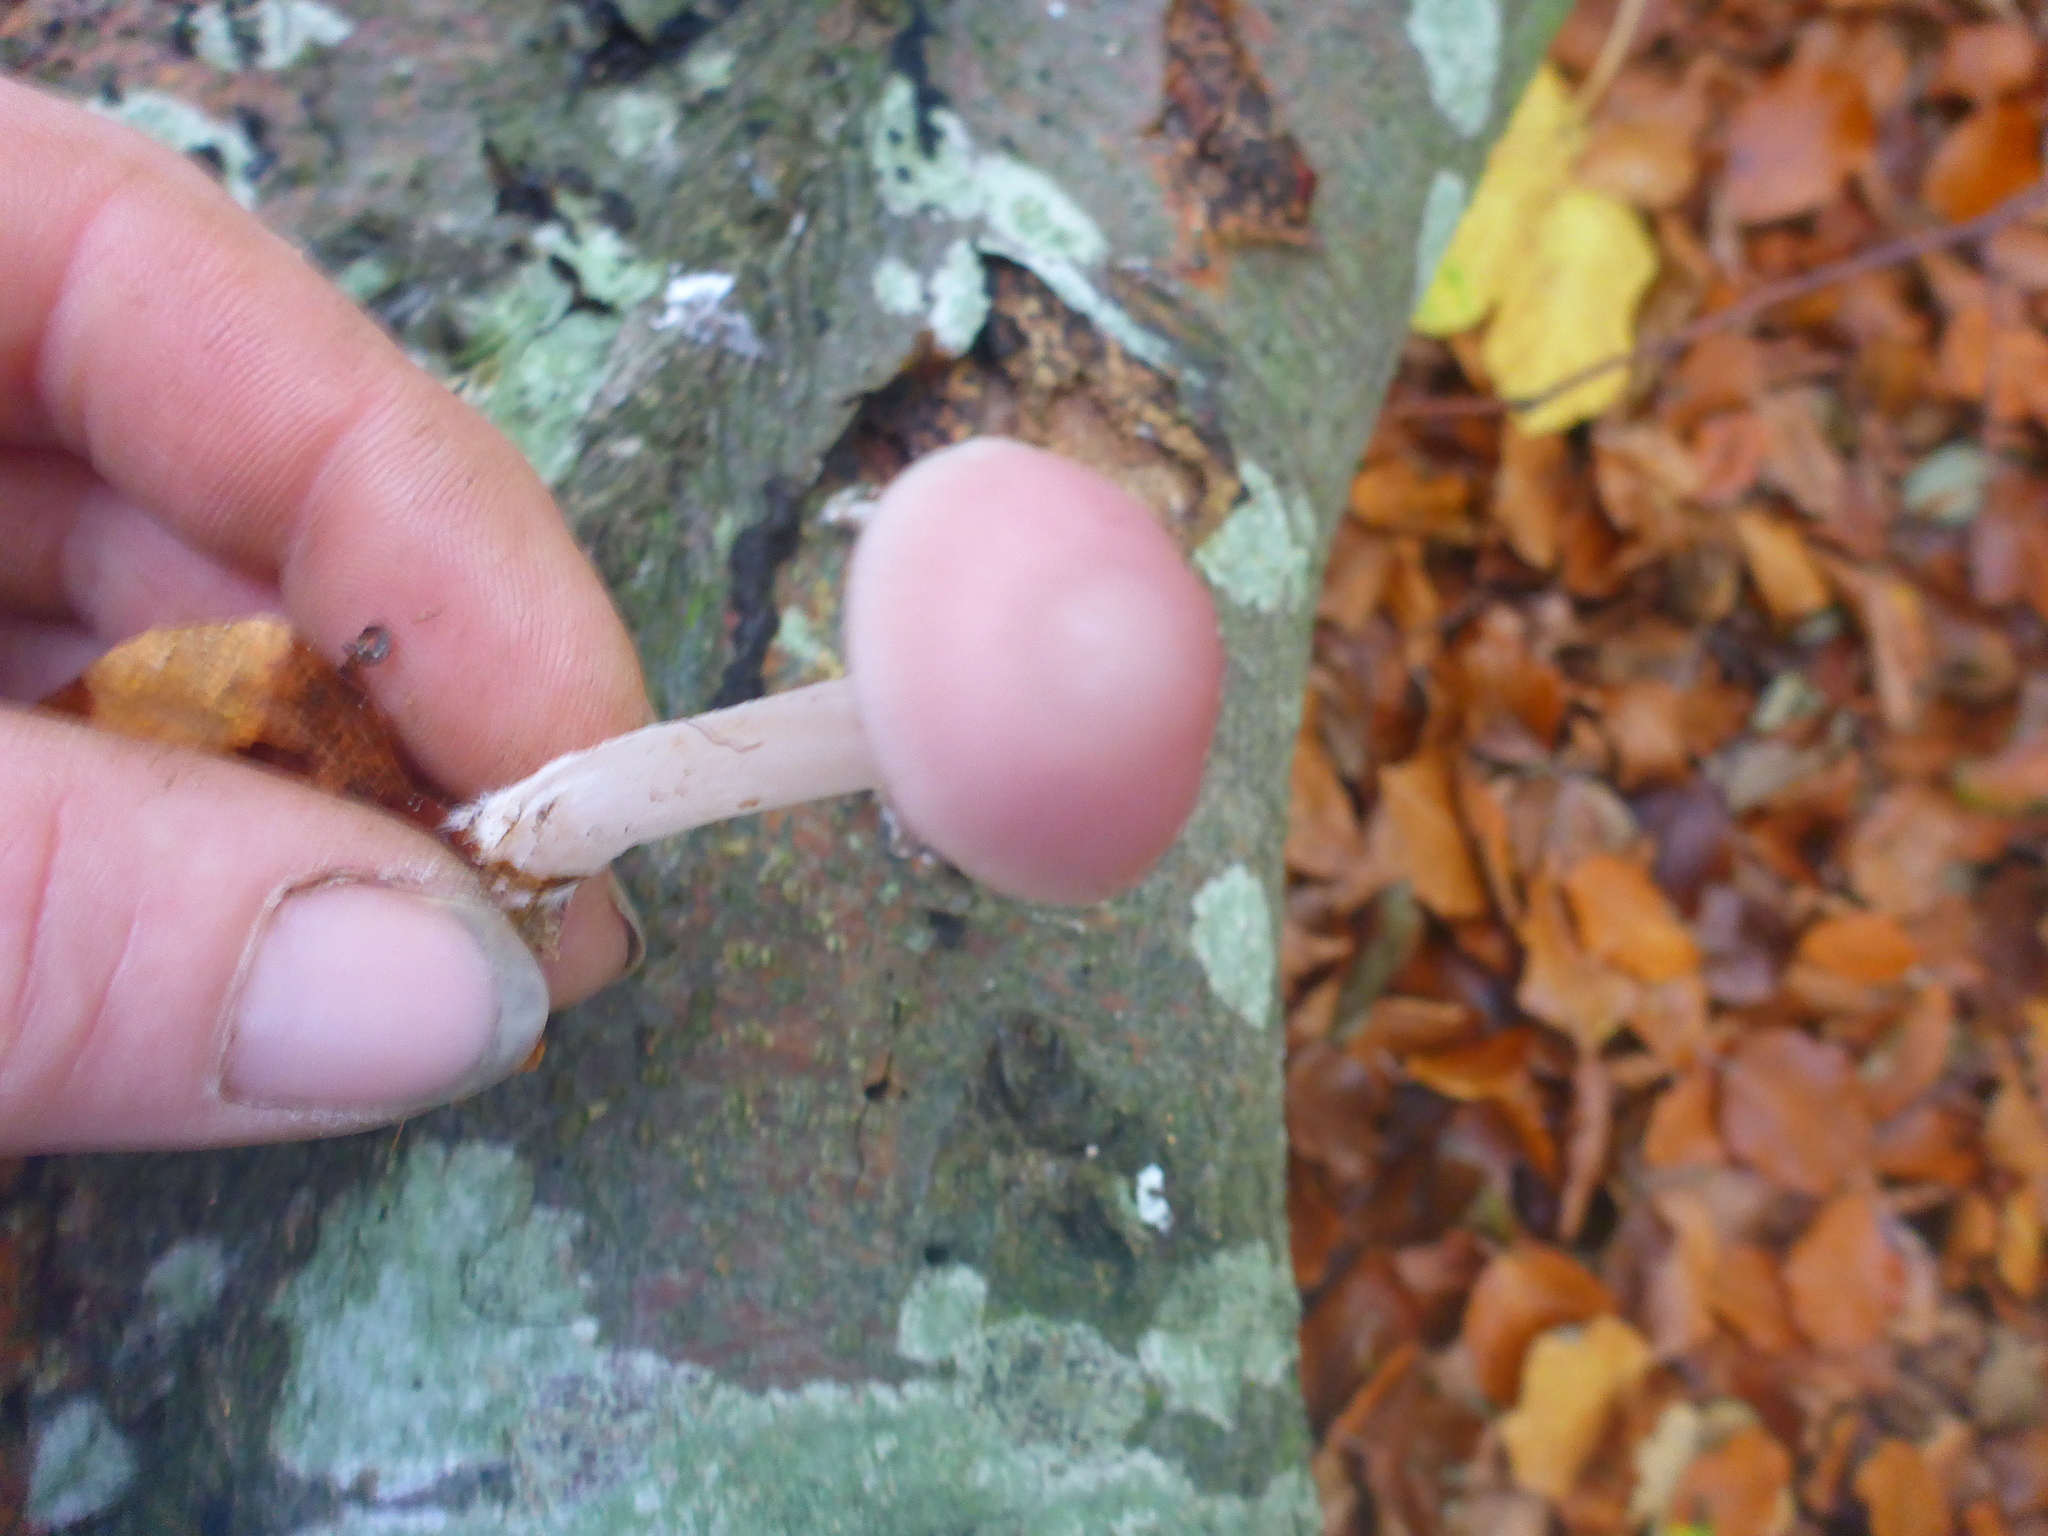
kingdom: Fungi
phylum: Basidiomycota
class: Agaricomycetes
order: Agaricales
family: Mycenaceae
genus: Mycena
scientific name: Mycena rosea
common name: Rosy bonnet
